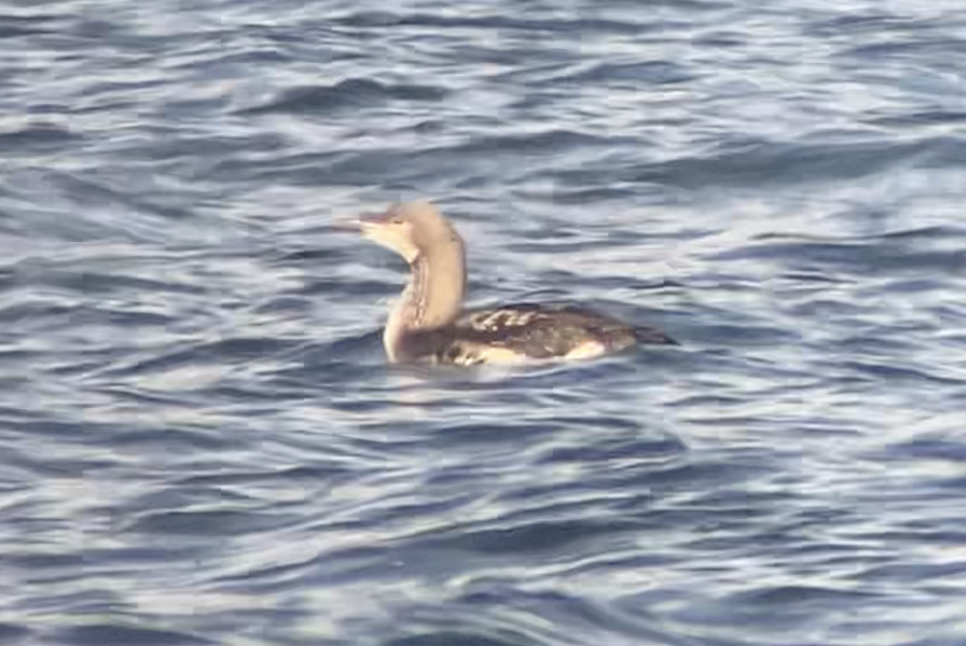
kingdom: Animalia
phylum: Chordata
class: Aves
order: Gaviiformes
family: Gaviidae
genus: Gavia
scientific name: Gavia arctica
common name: Black-throated loon
